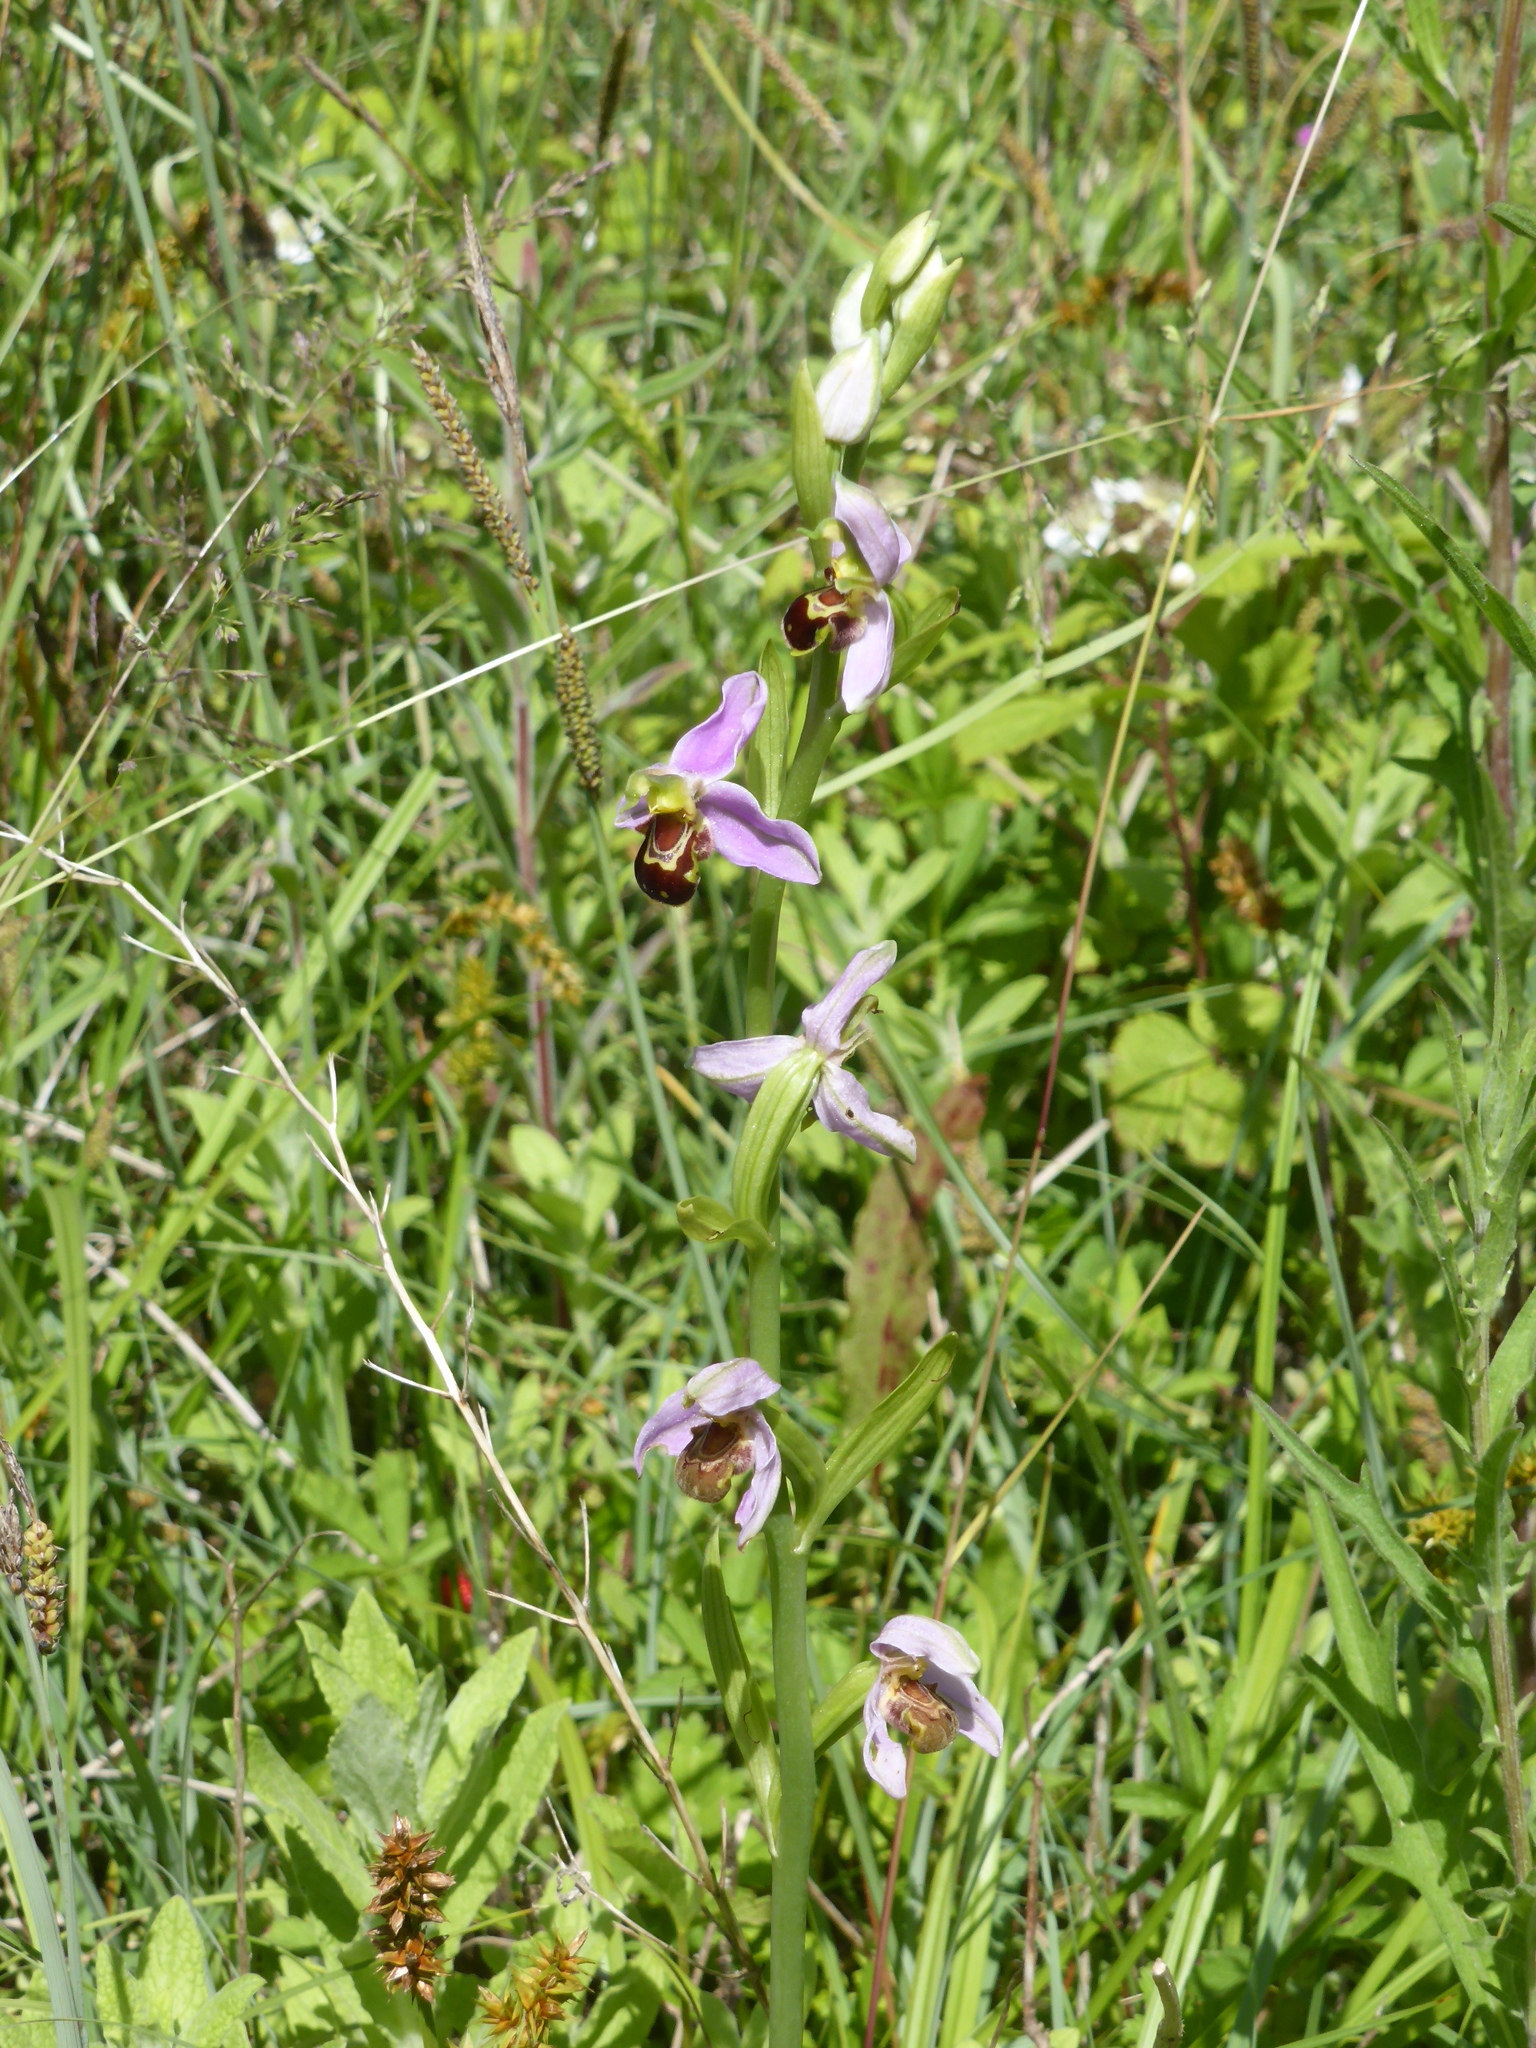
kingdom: Plantae
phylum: Tracheophyta
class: Liliopsida
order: Asparagales
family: Orchidaceae
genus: Ophrys
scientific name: Ophrys apifera
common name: Bee orchid
